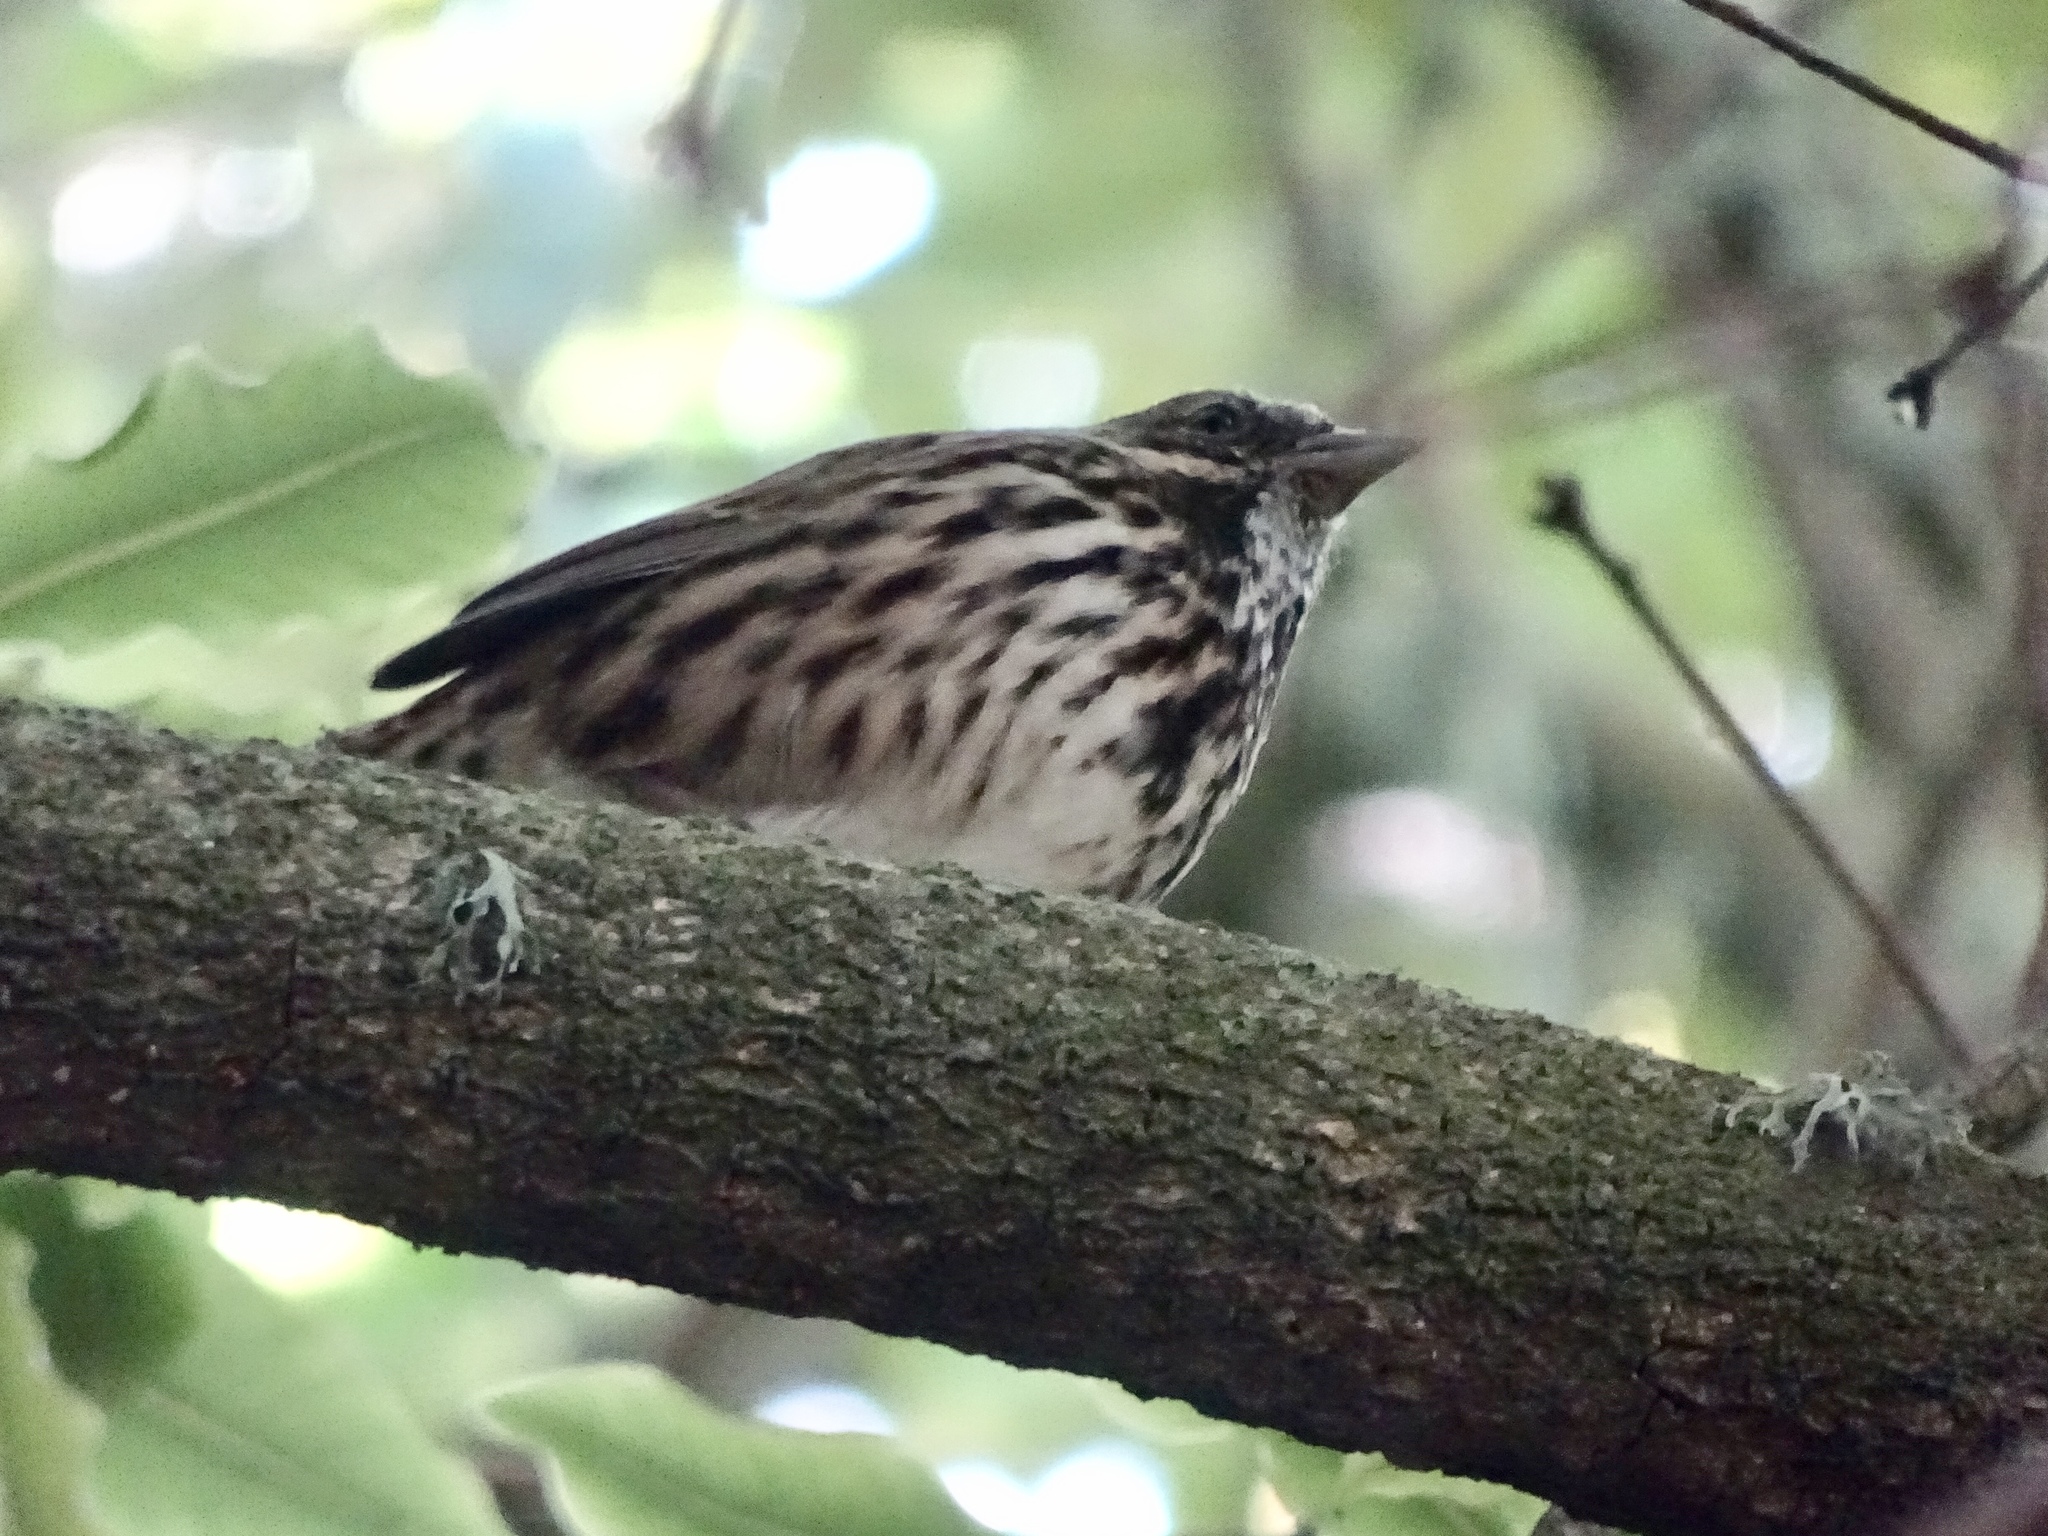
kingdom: Animalia
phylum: Chordata
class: Aves
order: Passeriformes
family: Passerellidae
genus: Melospiza
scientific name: Melospiza melodia
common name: Song sparrow
